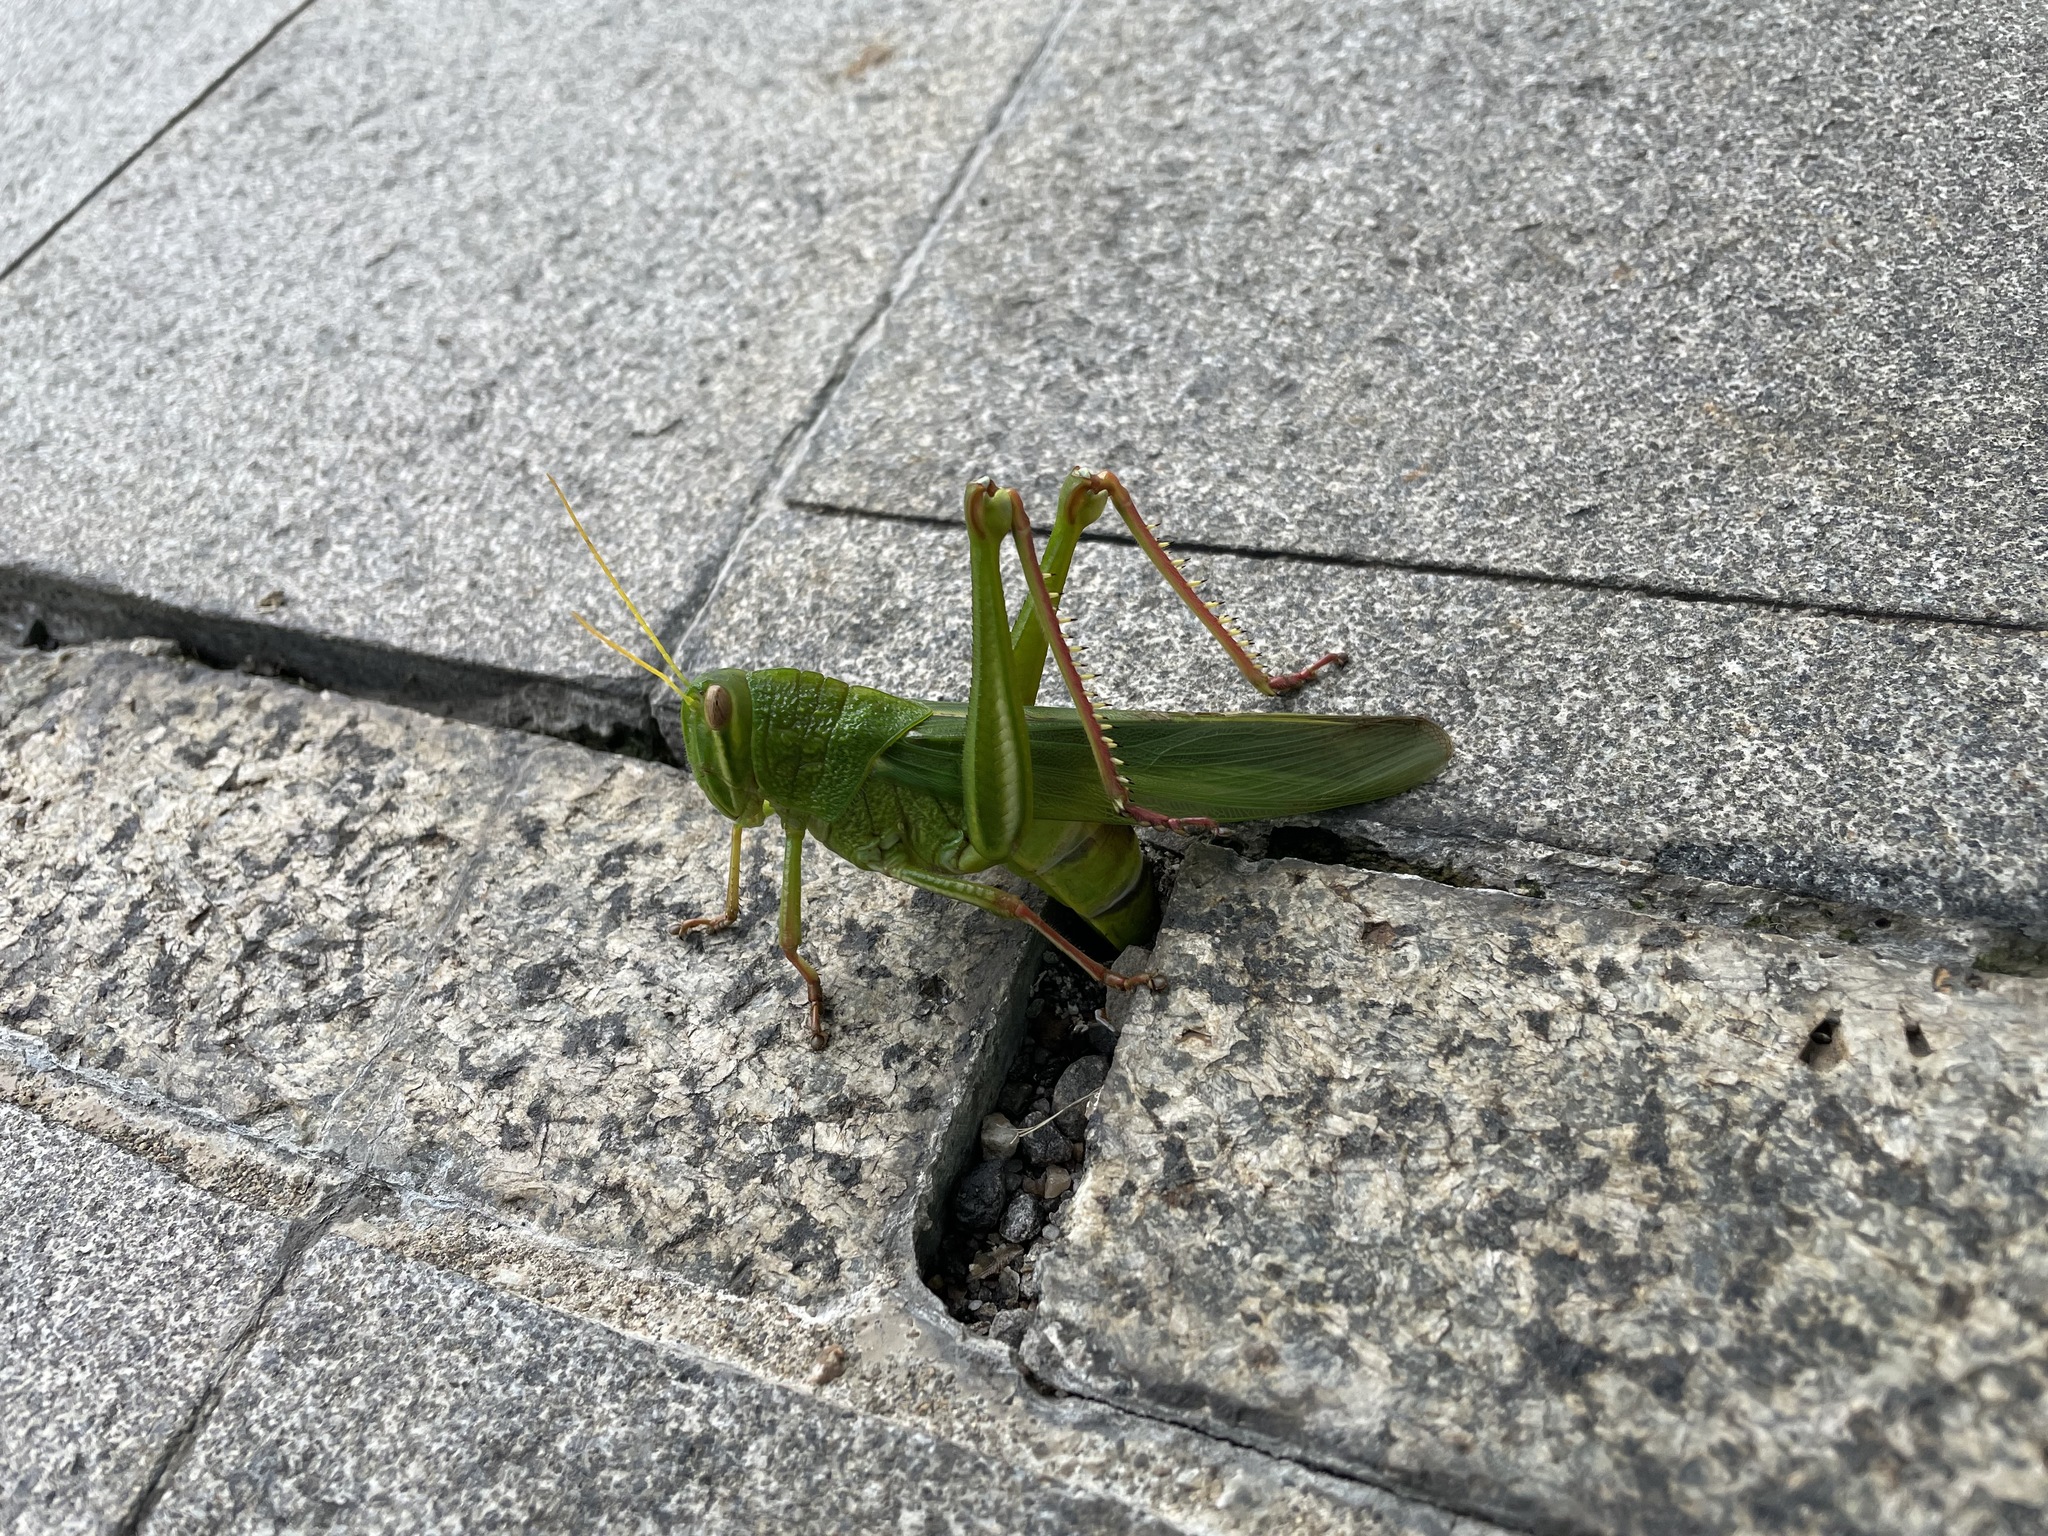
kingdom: Animalia
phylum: Arthropoda
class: Insecta
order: Orthoptera
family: Acrididae
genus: Chondracris
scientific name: Chondracris rosea
